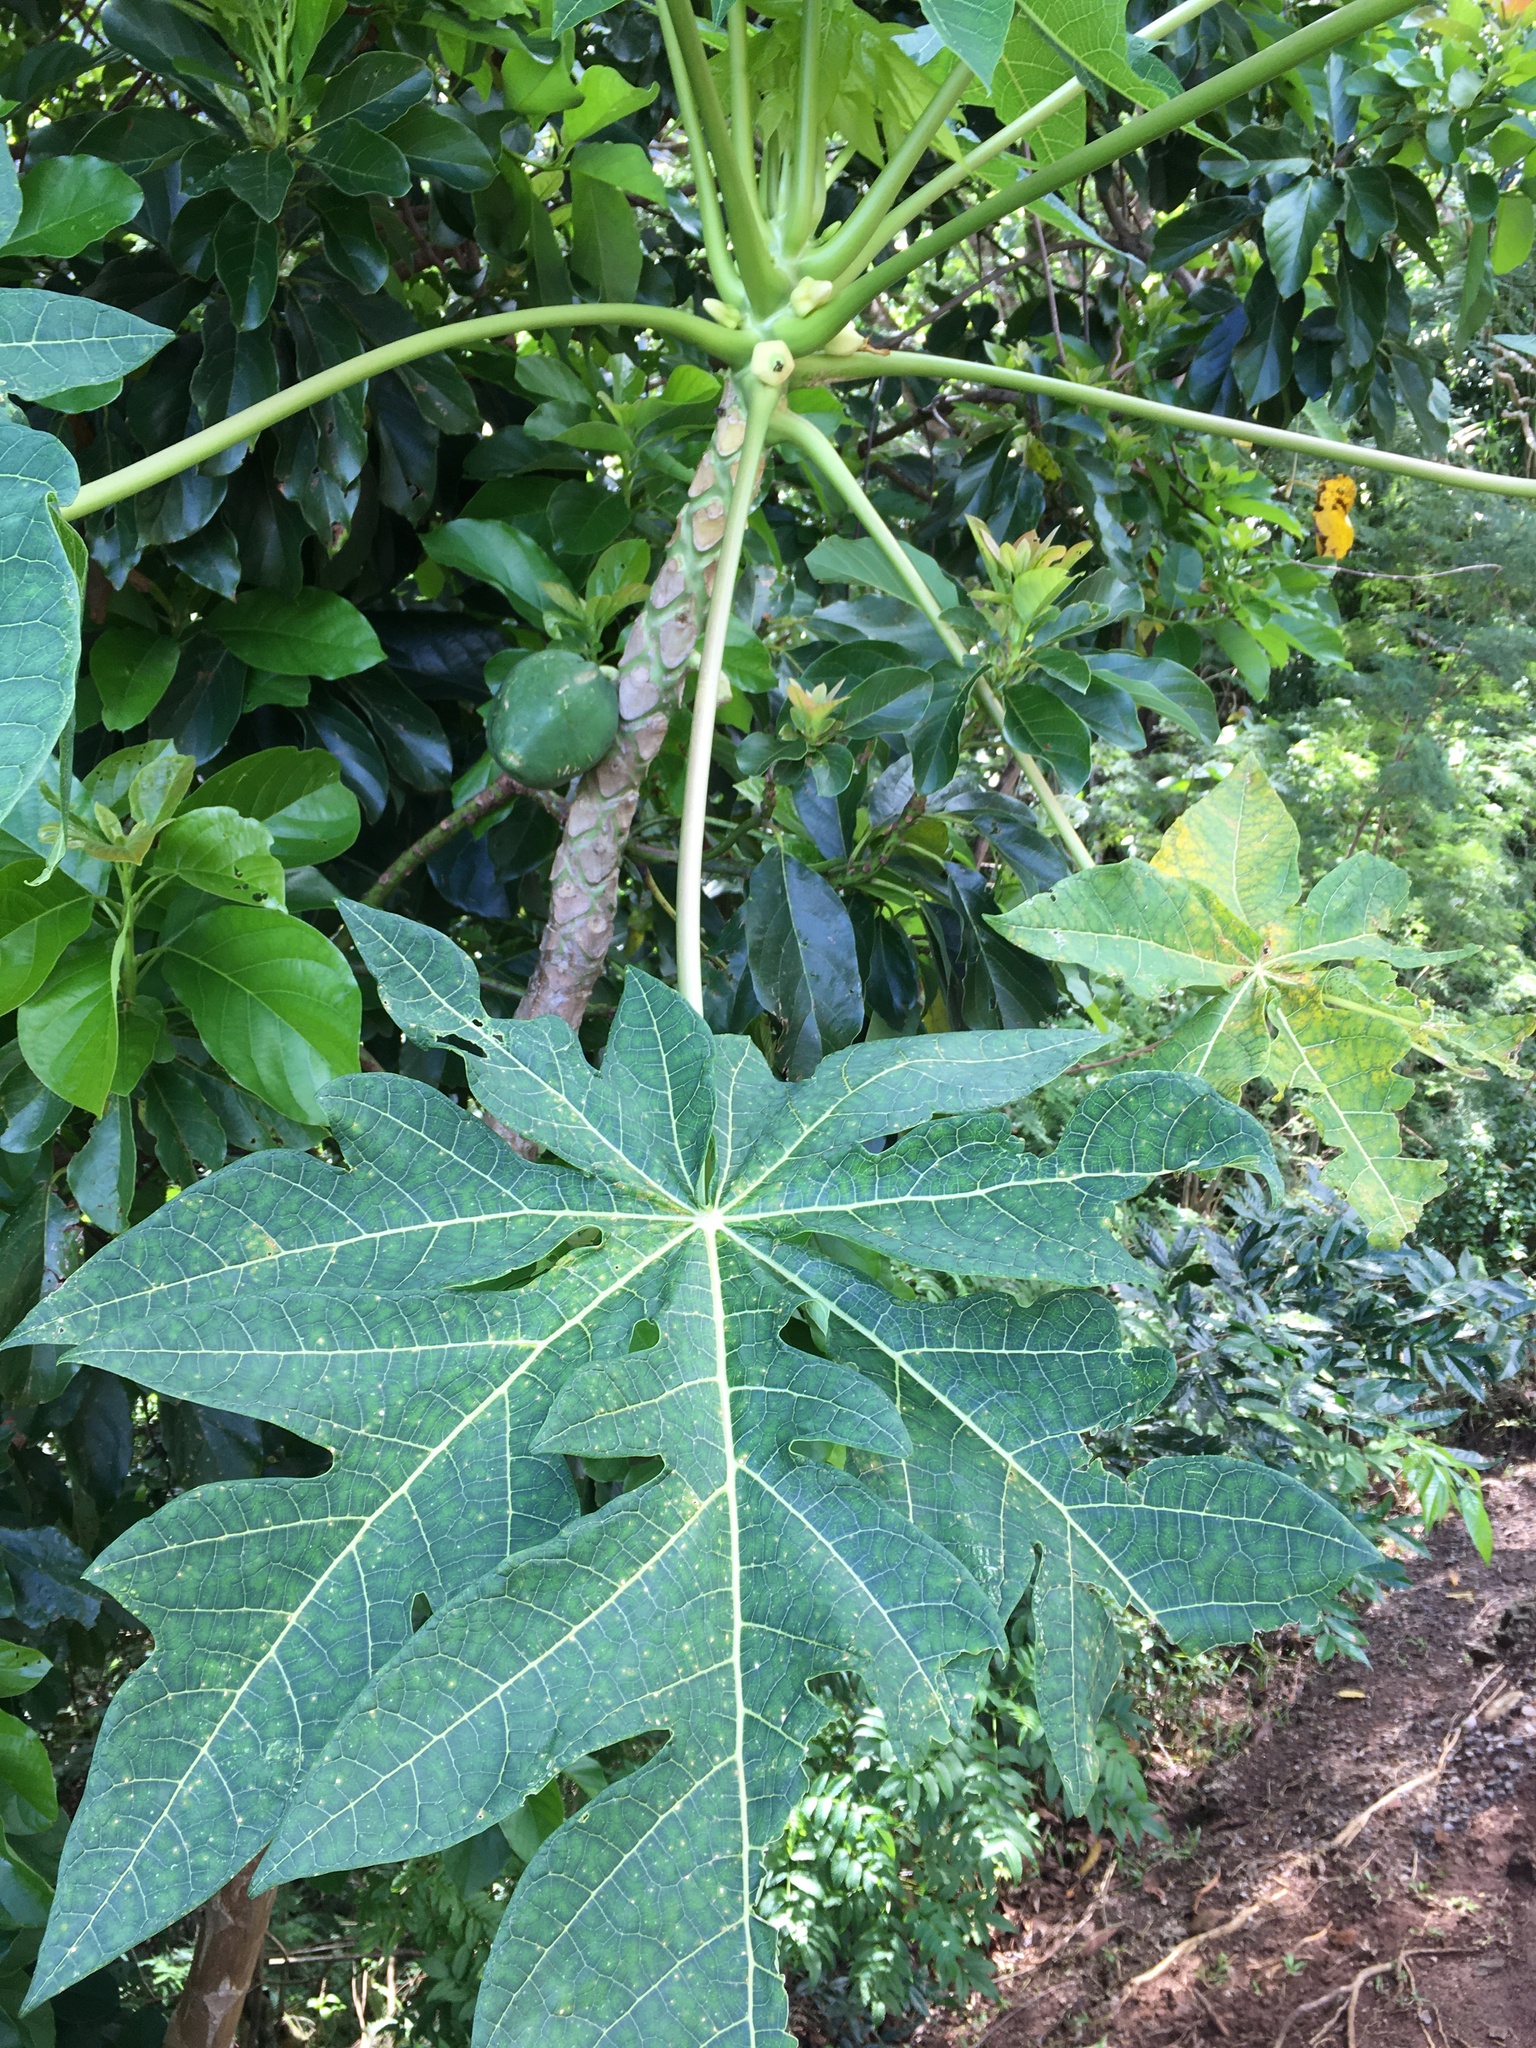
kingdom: Plantae
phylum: Tracheophyta
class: Magnoliopsida
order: Brassicales
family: Caricaceae
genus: Carica
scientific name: Carica papaya
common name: Papaya
